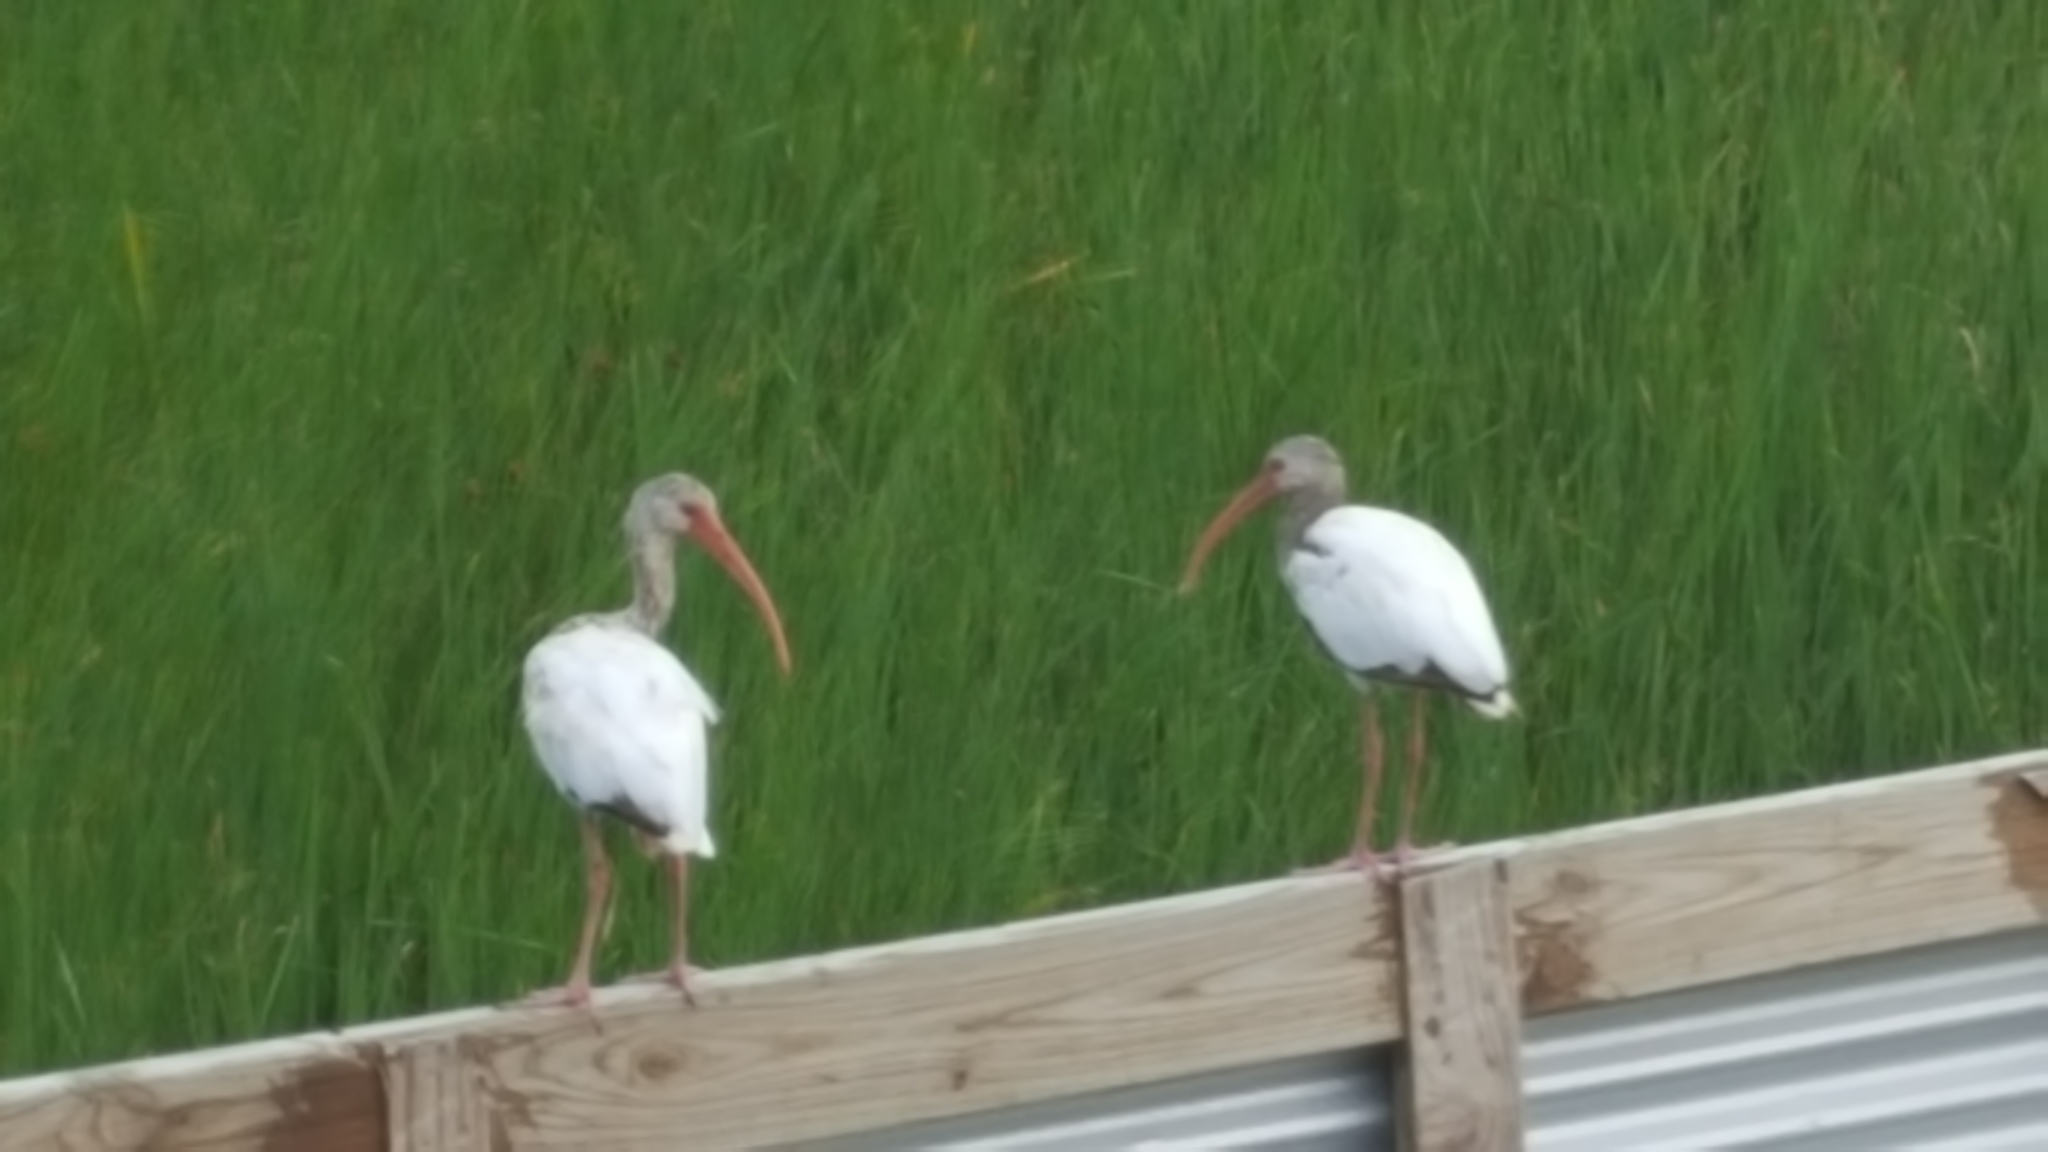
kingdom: Animalia
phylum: Chordata
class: Aves
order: Pelecaniformes
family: Threskiornithidae
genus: Eudocimus
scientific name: Eudocimus albus
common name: White ibis
